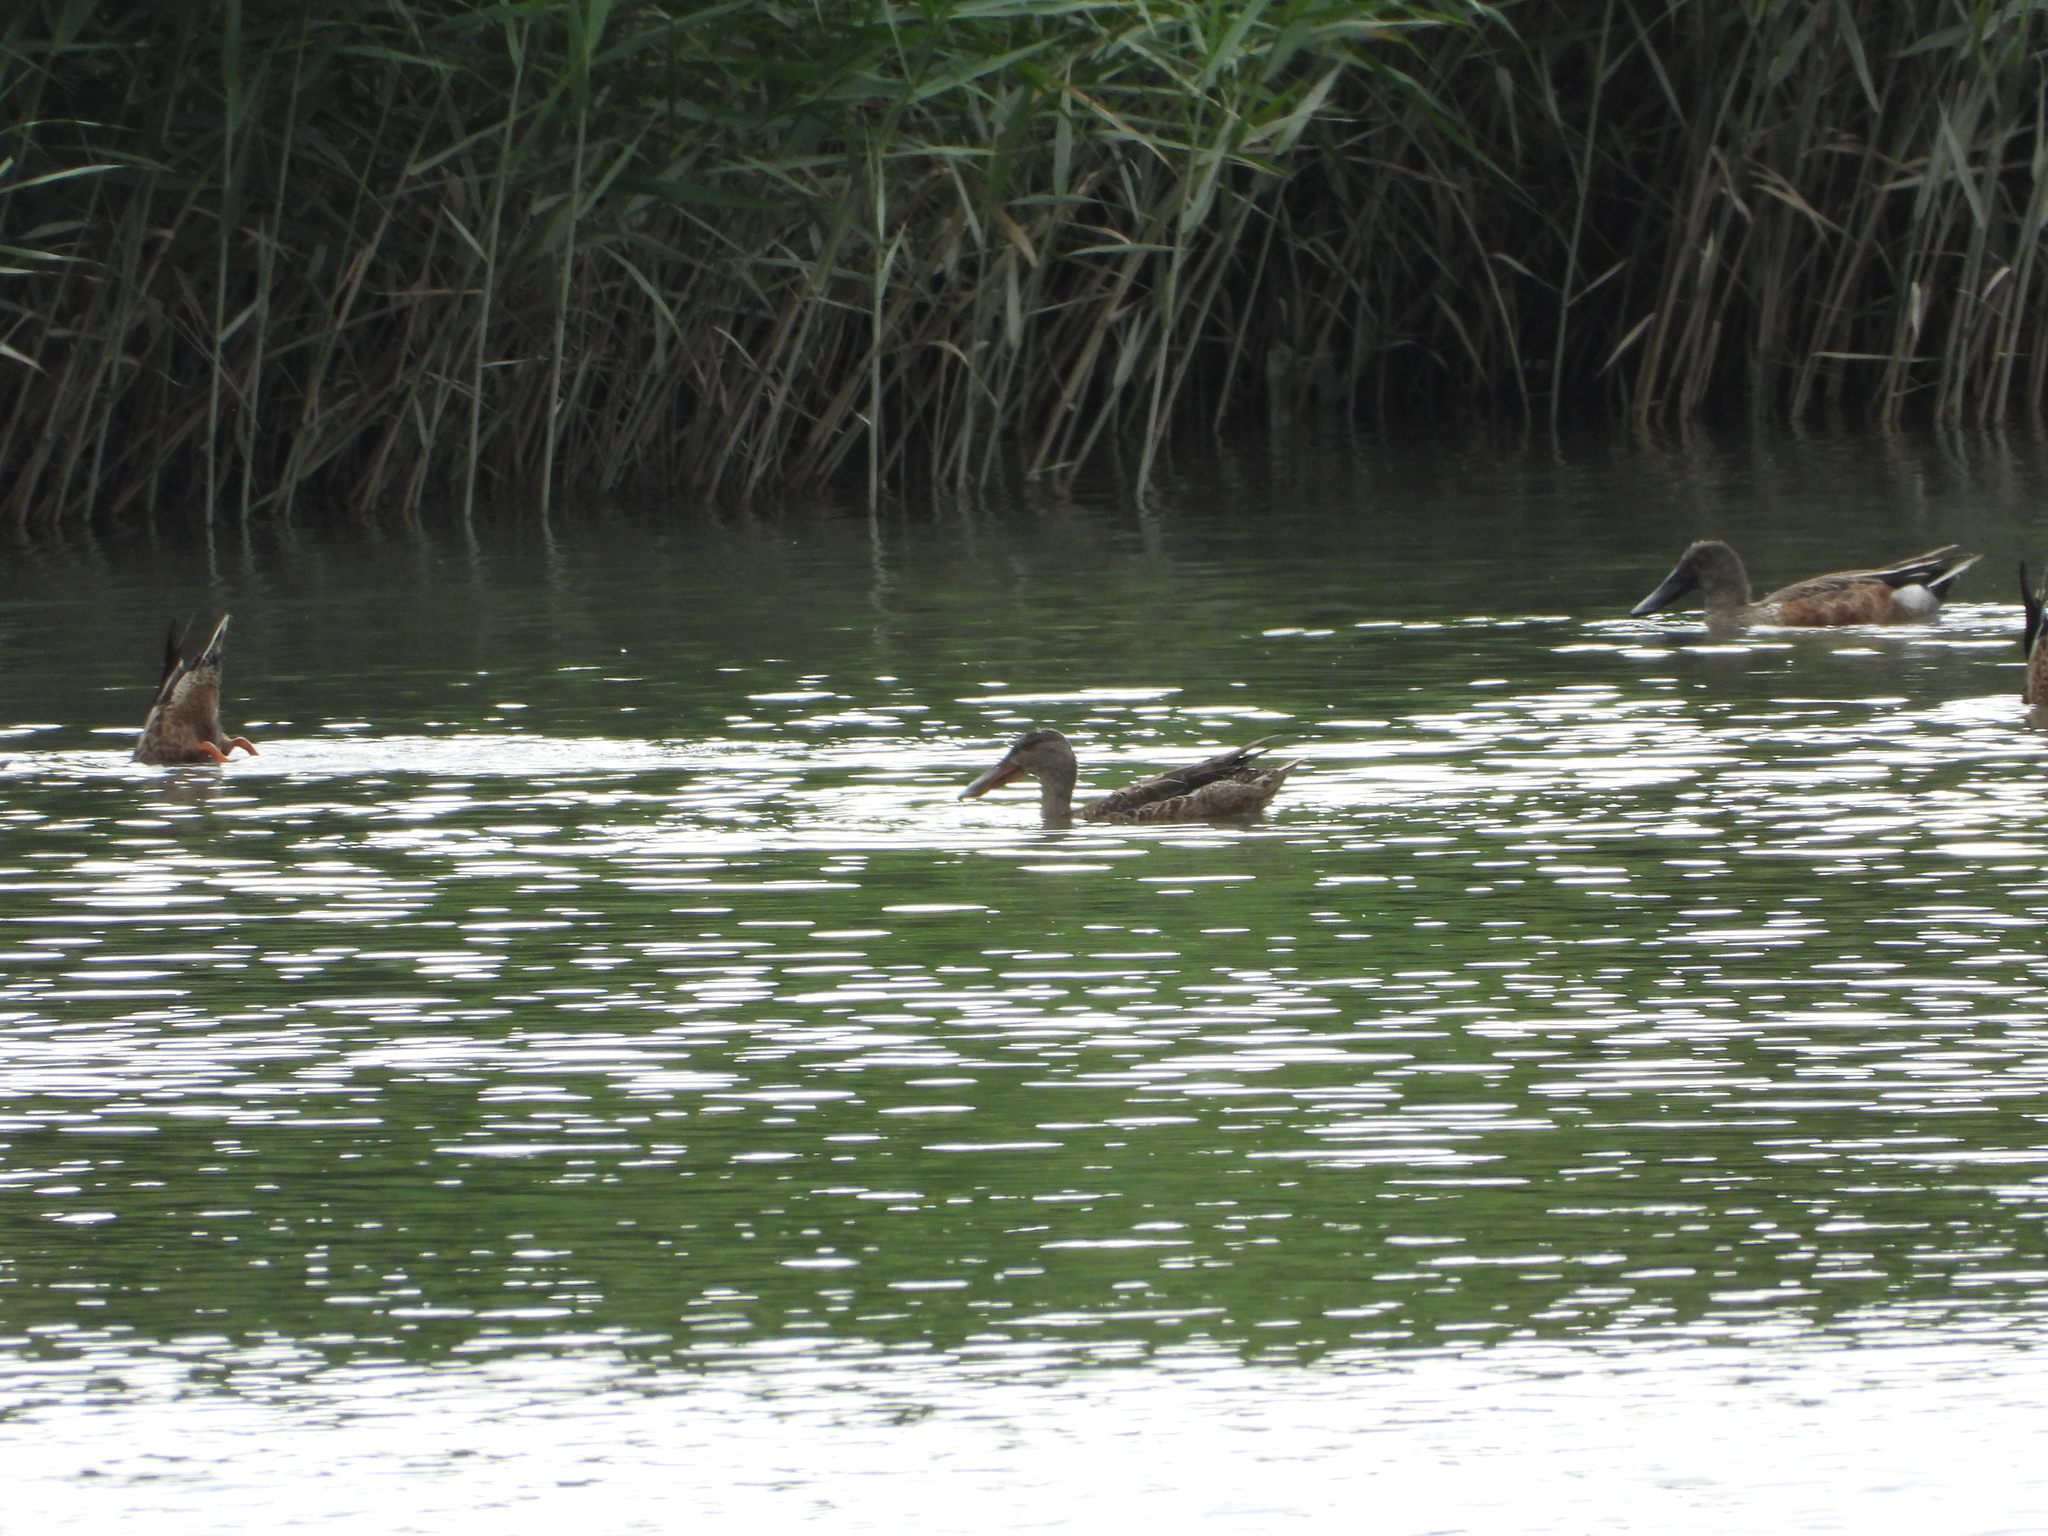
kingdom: Animalia
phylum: Chordata
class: Aves
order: Anseriformes
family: Anatidae
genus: Spatula
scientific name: Spatula clypeata
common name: Northern shoveler
